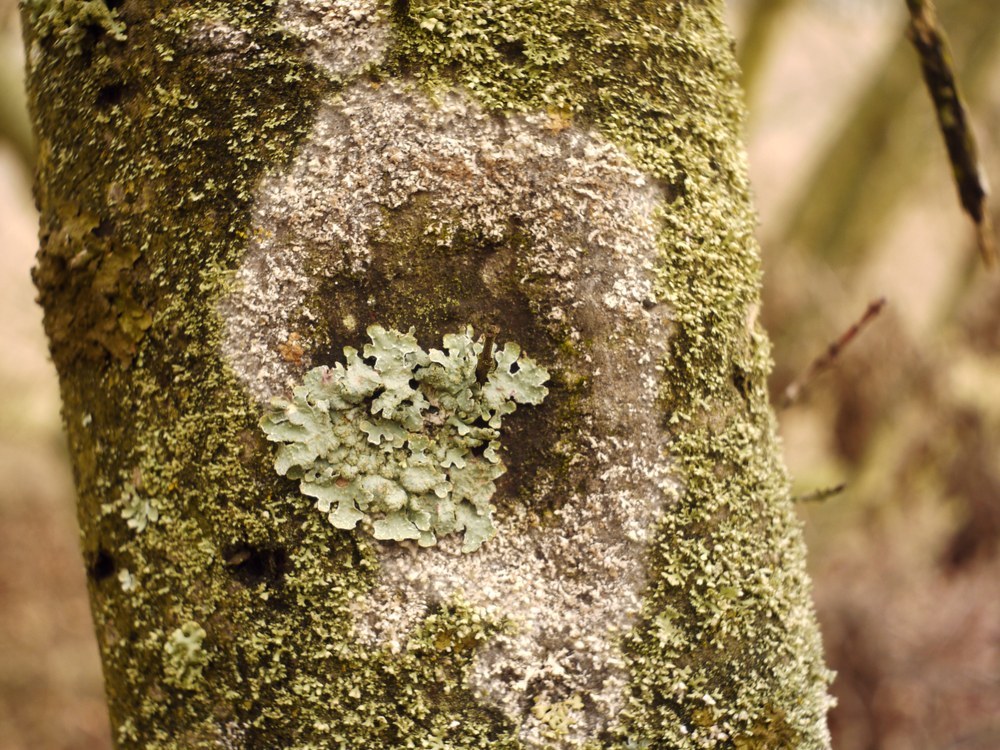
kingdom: Fungi
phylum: Basidiomycota
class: Agaricomycetes
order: Atheliales
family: Atheliaceae
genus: Athelia
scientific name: Athelia arachnoidea
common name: Candelabra duster
